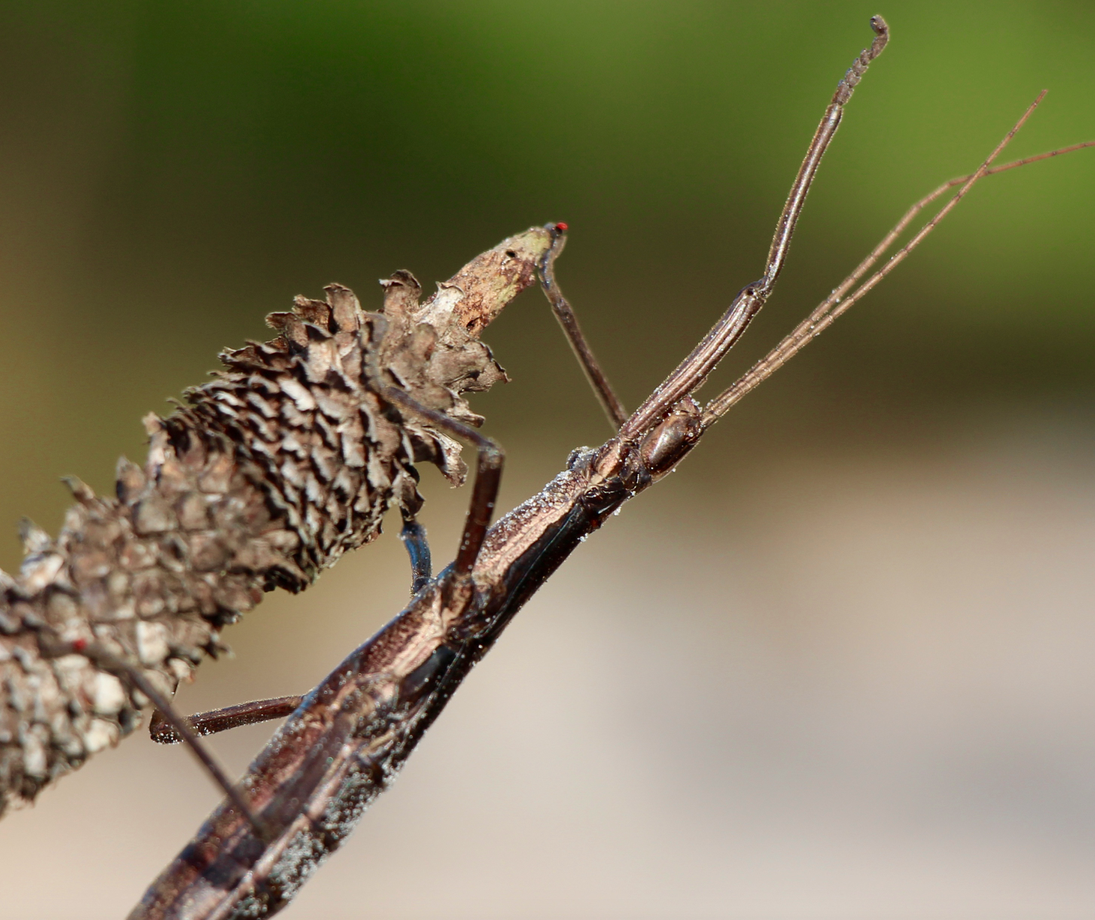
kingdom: Animalia
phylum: Arthropoda
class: Insecta
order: Phasmida
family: Pseudophasmatidae
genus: Anisomorpha
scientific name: Anisomorpha buprestoides
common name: Florida stick insect
